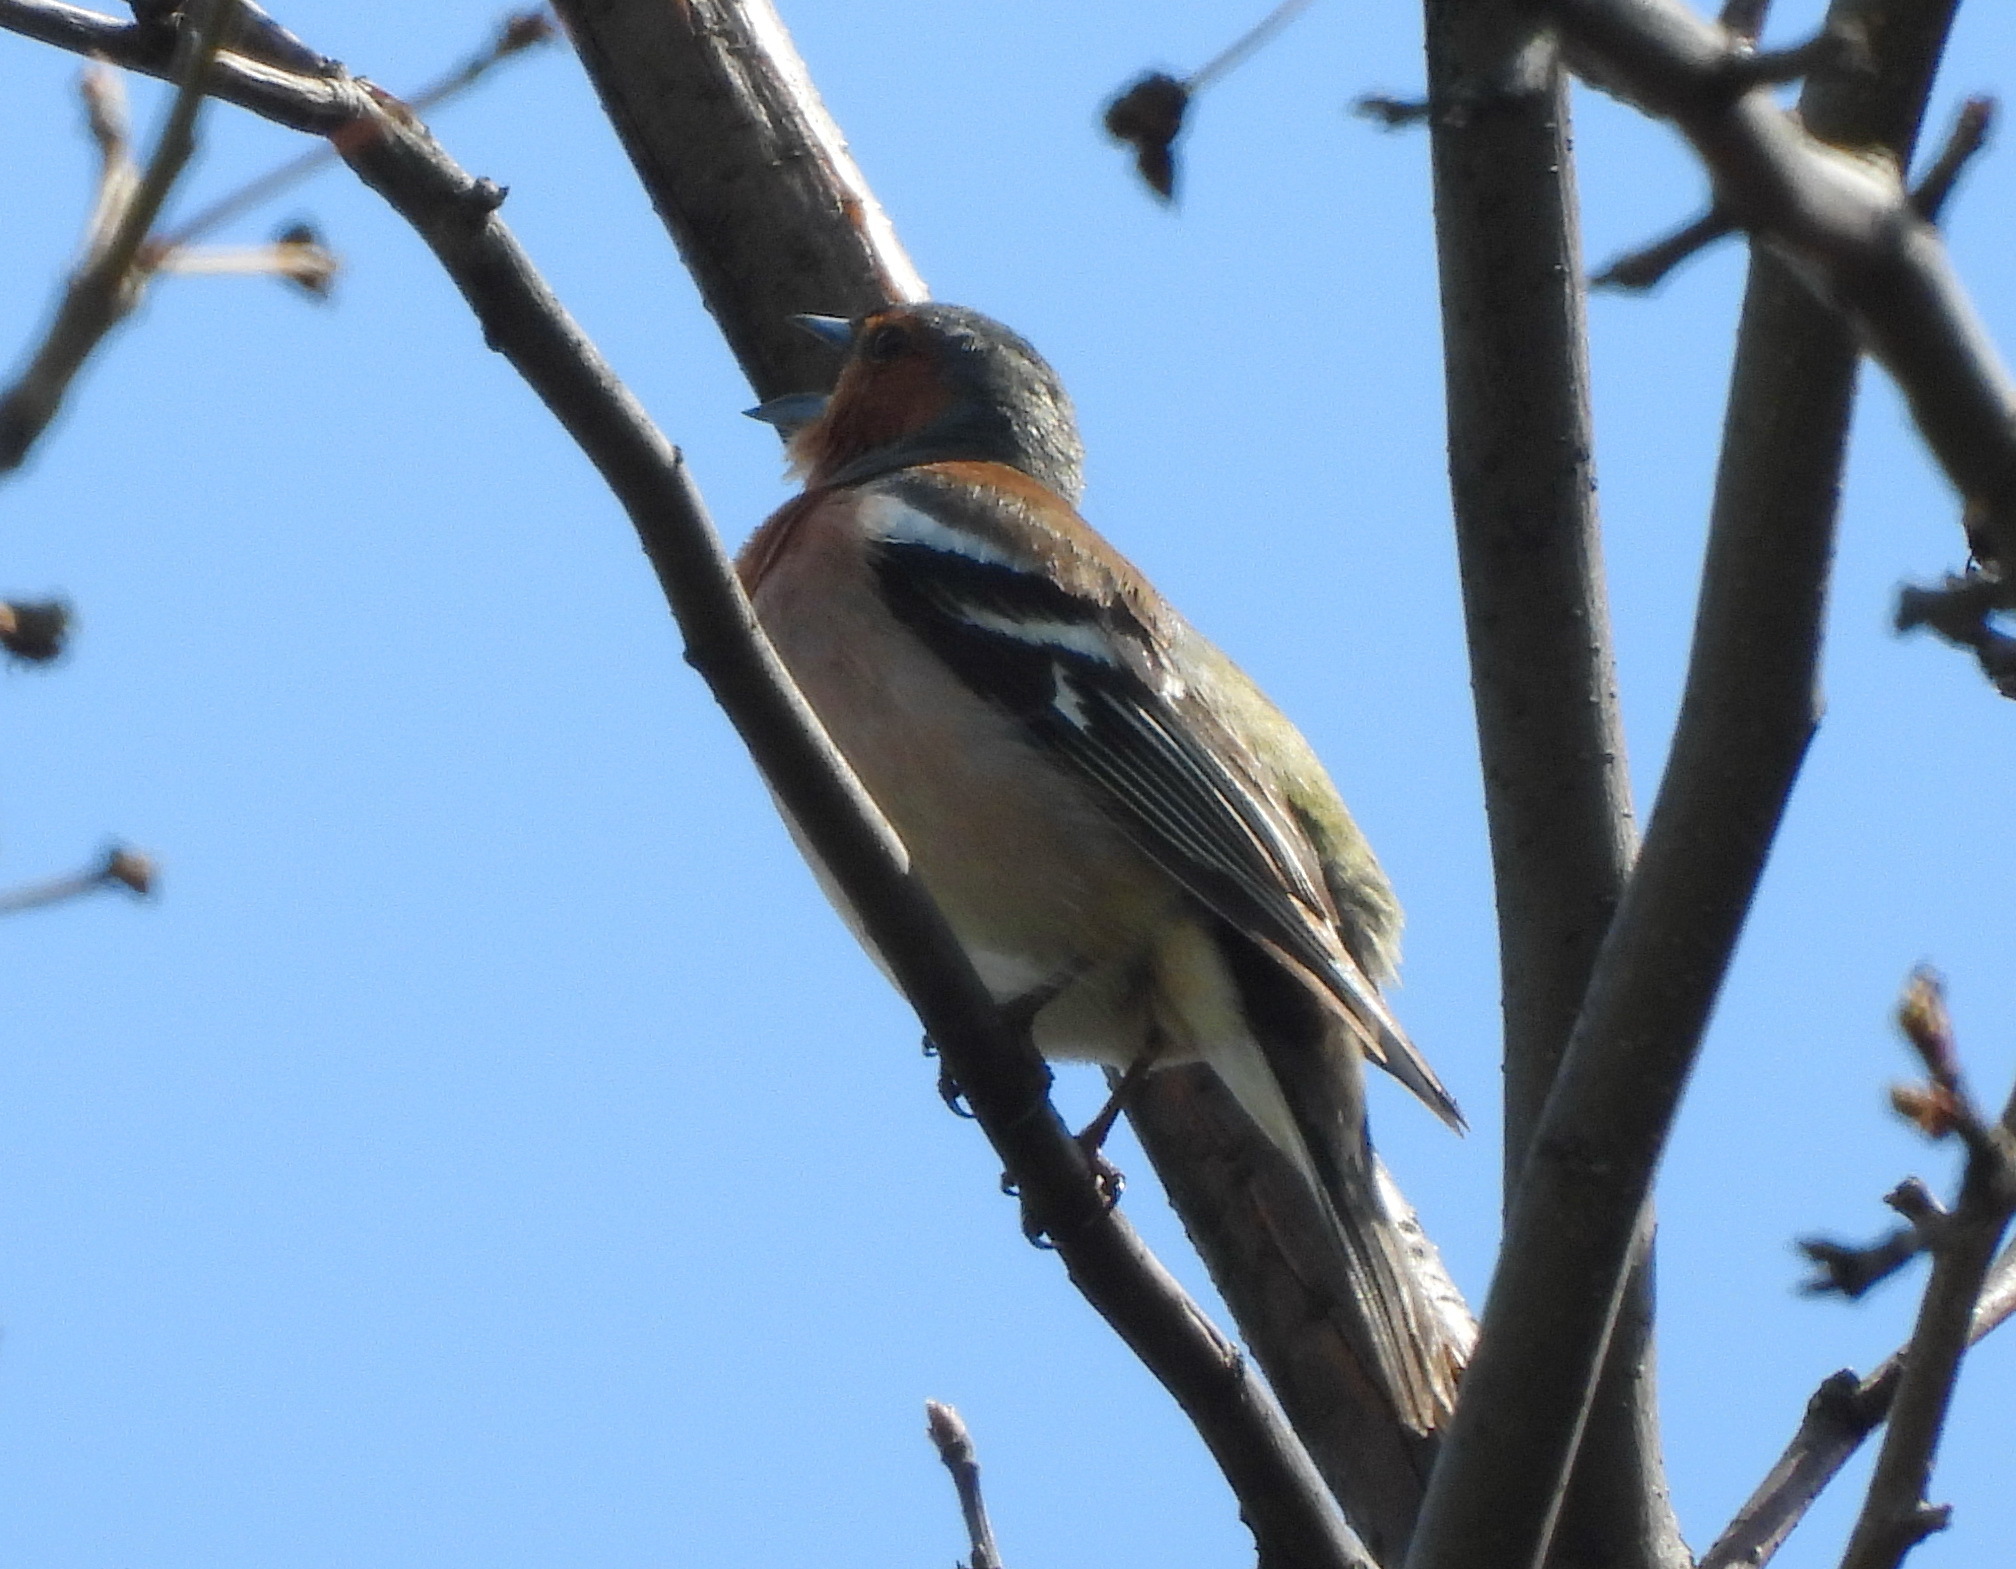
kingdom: Animalia
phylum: Chordata
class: Aves
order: Passeriformes
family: Fringillidae
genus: Fringilla
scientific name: Fringilla coelebs
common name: Common chaffinch
